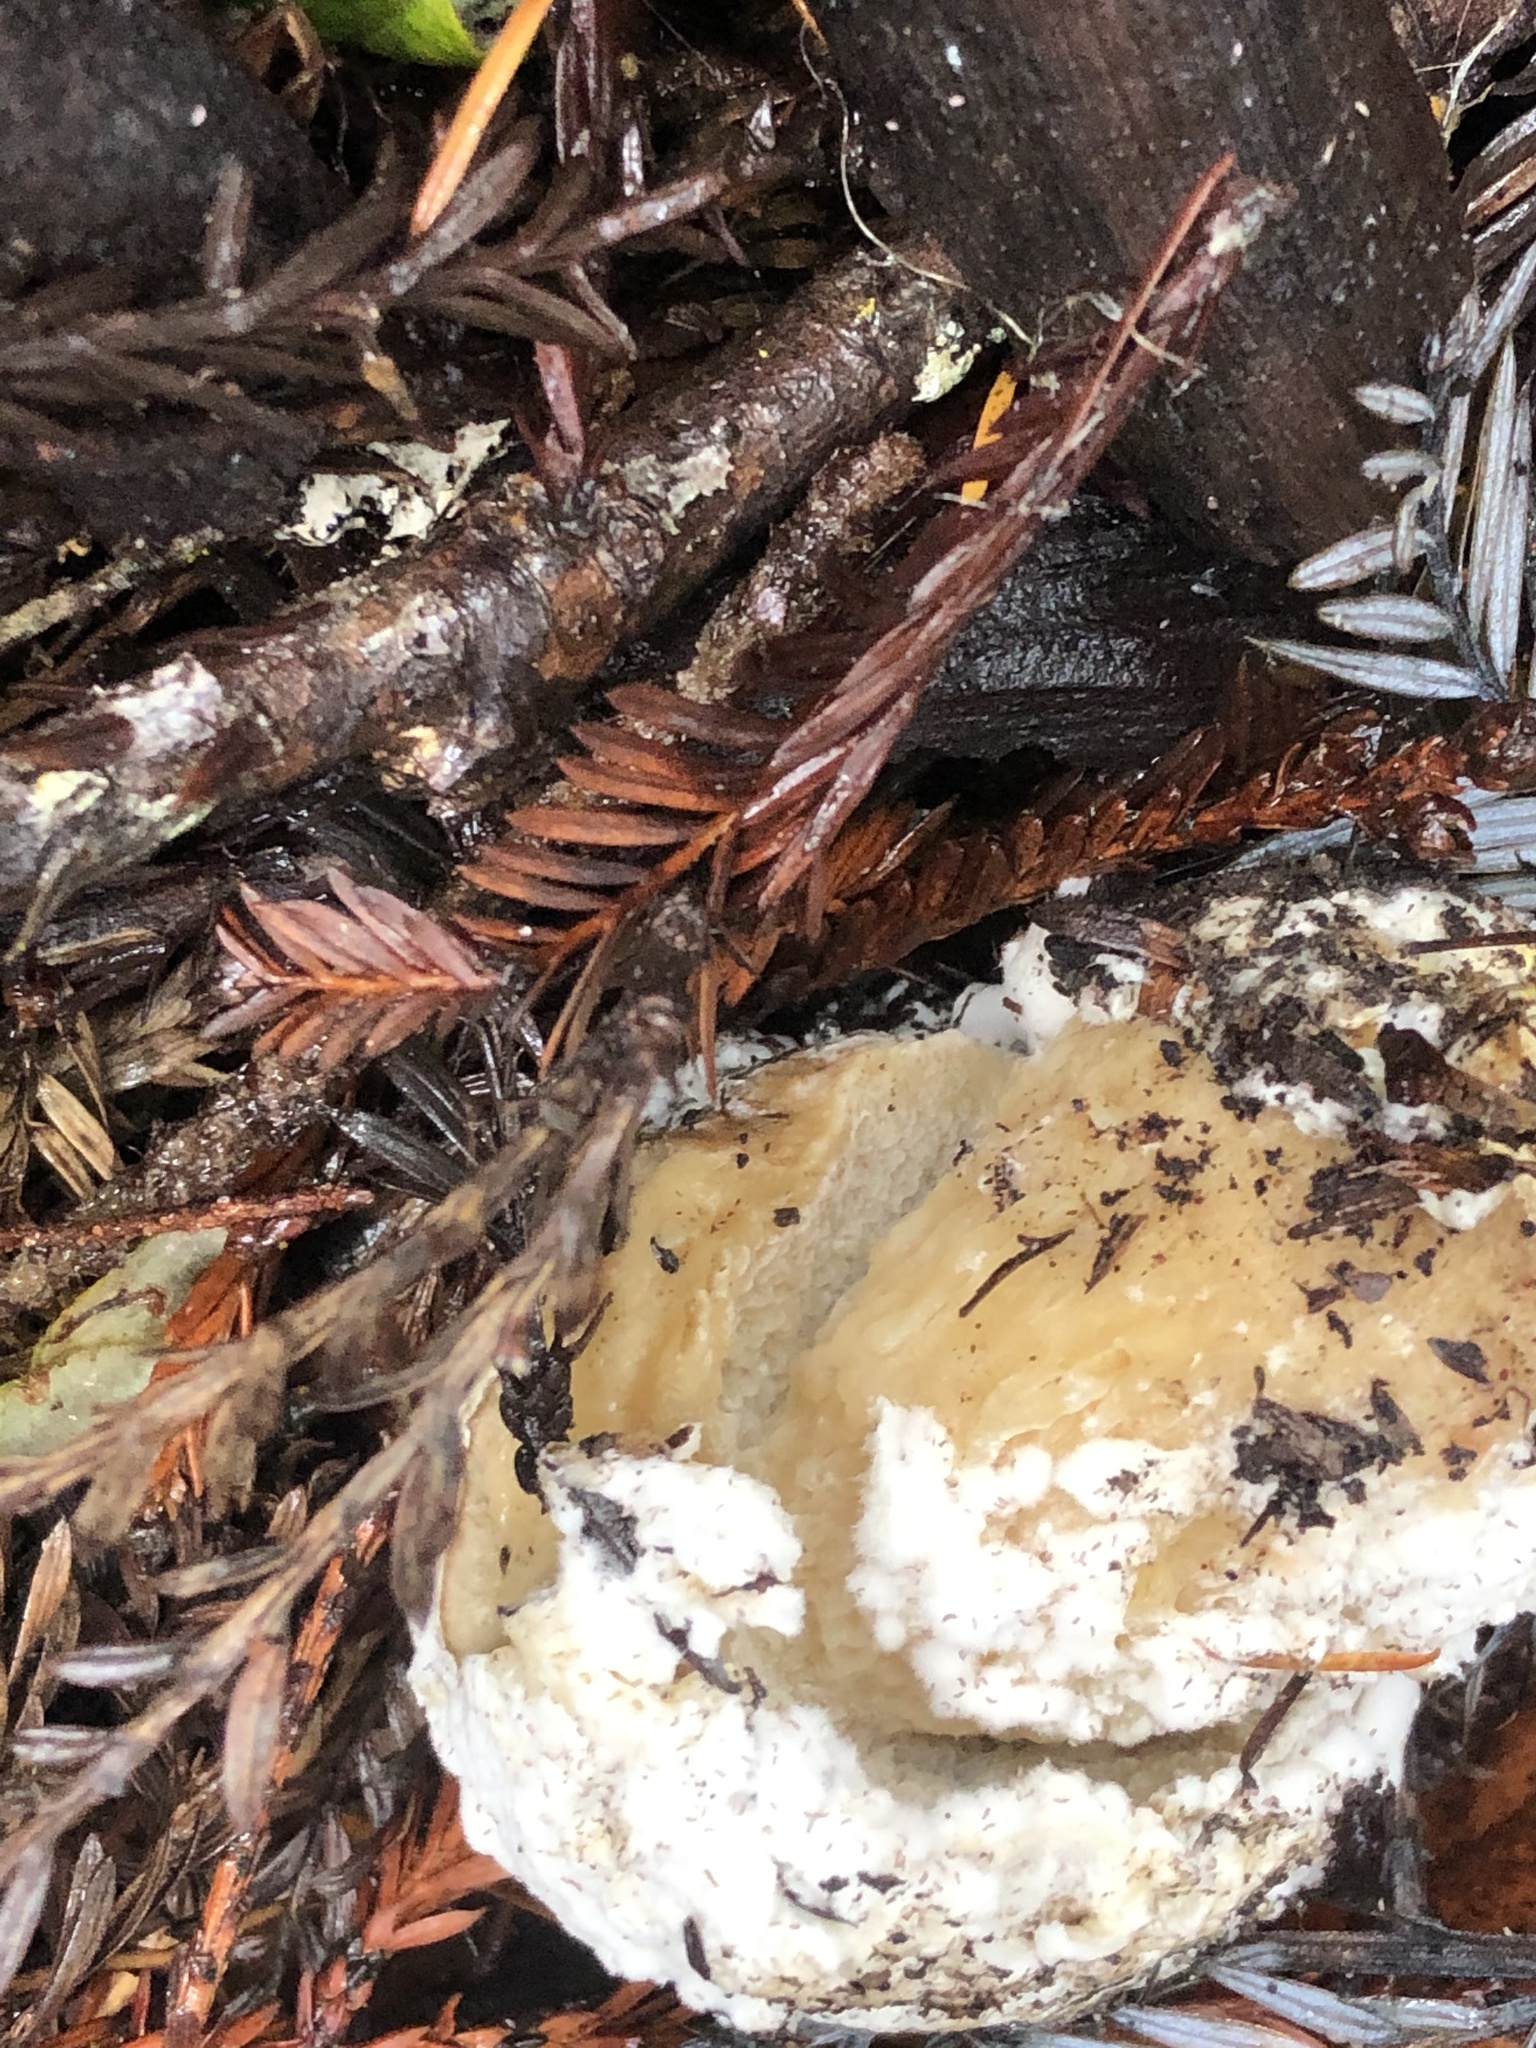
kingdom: Fungi
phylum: Ascomycota
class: Sordariomycetes
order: Hypocreales
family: Hypocreaceae
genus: Hypomyces
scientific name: Hypomyces chrysospermus
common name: Bolete mould
